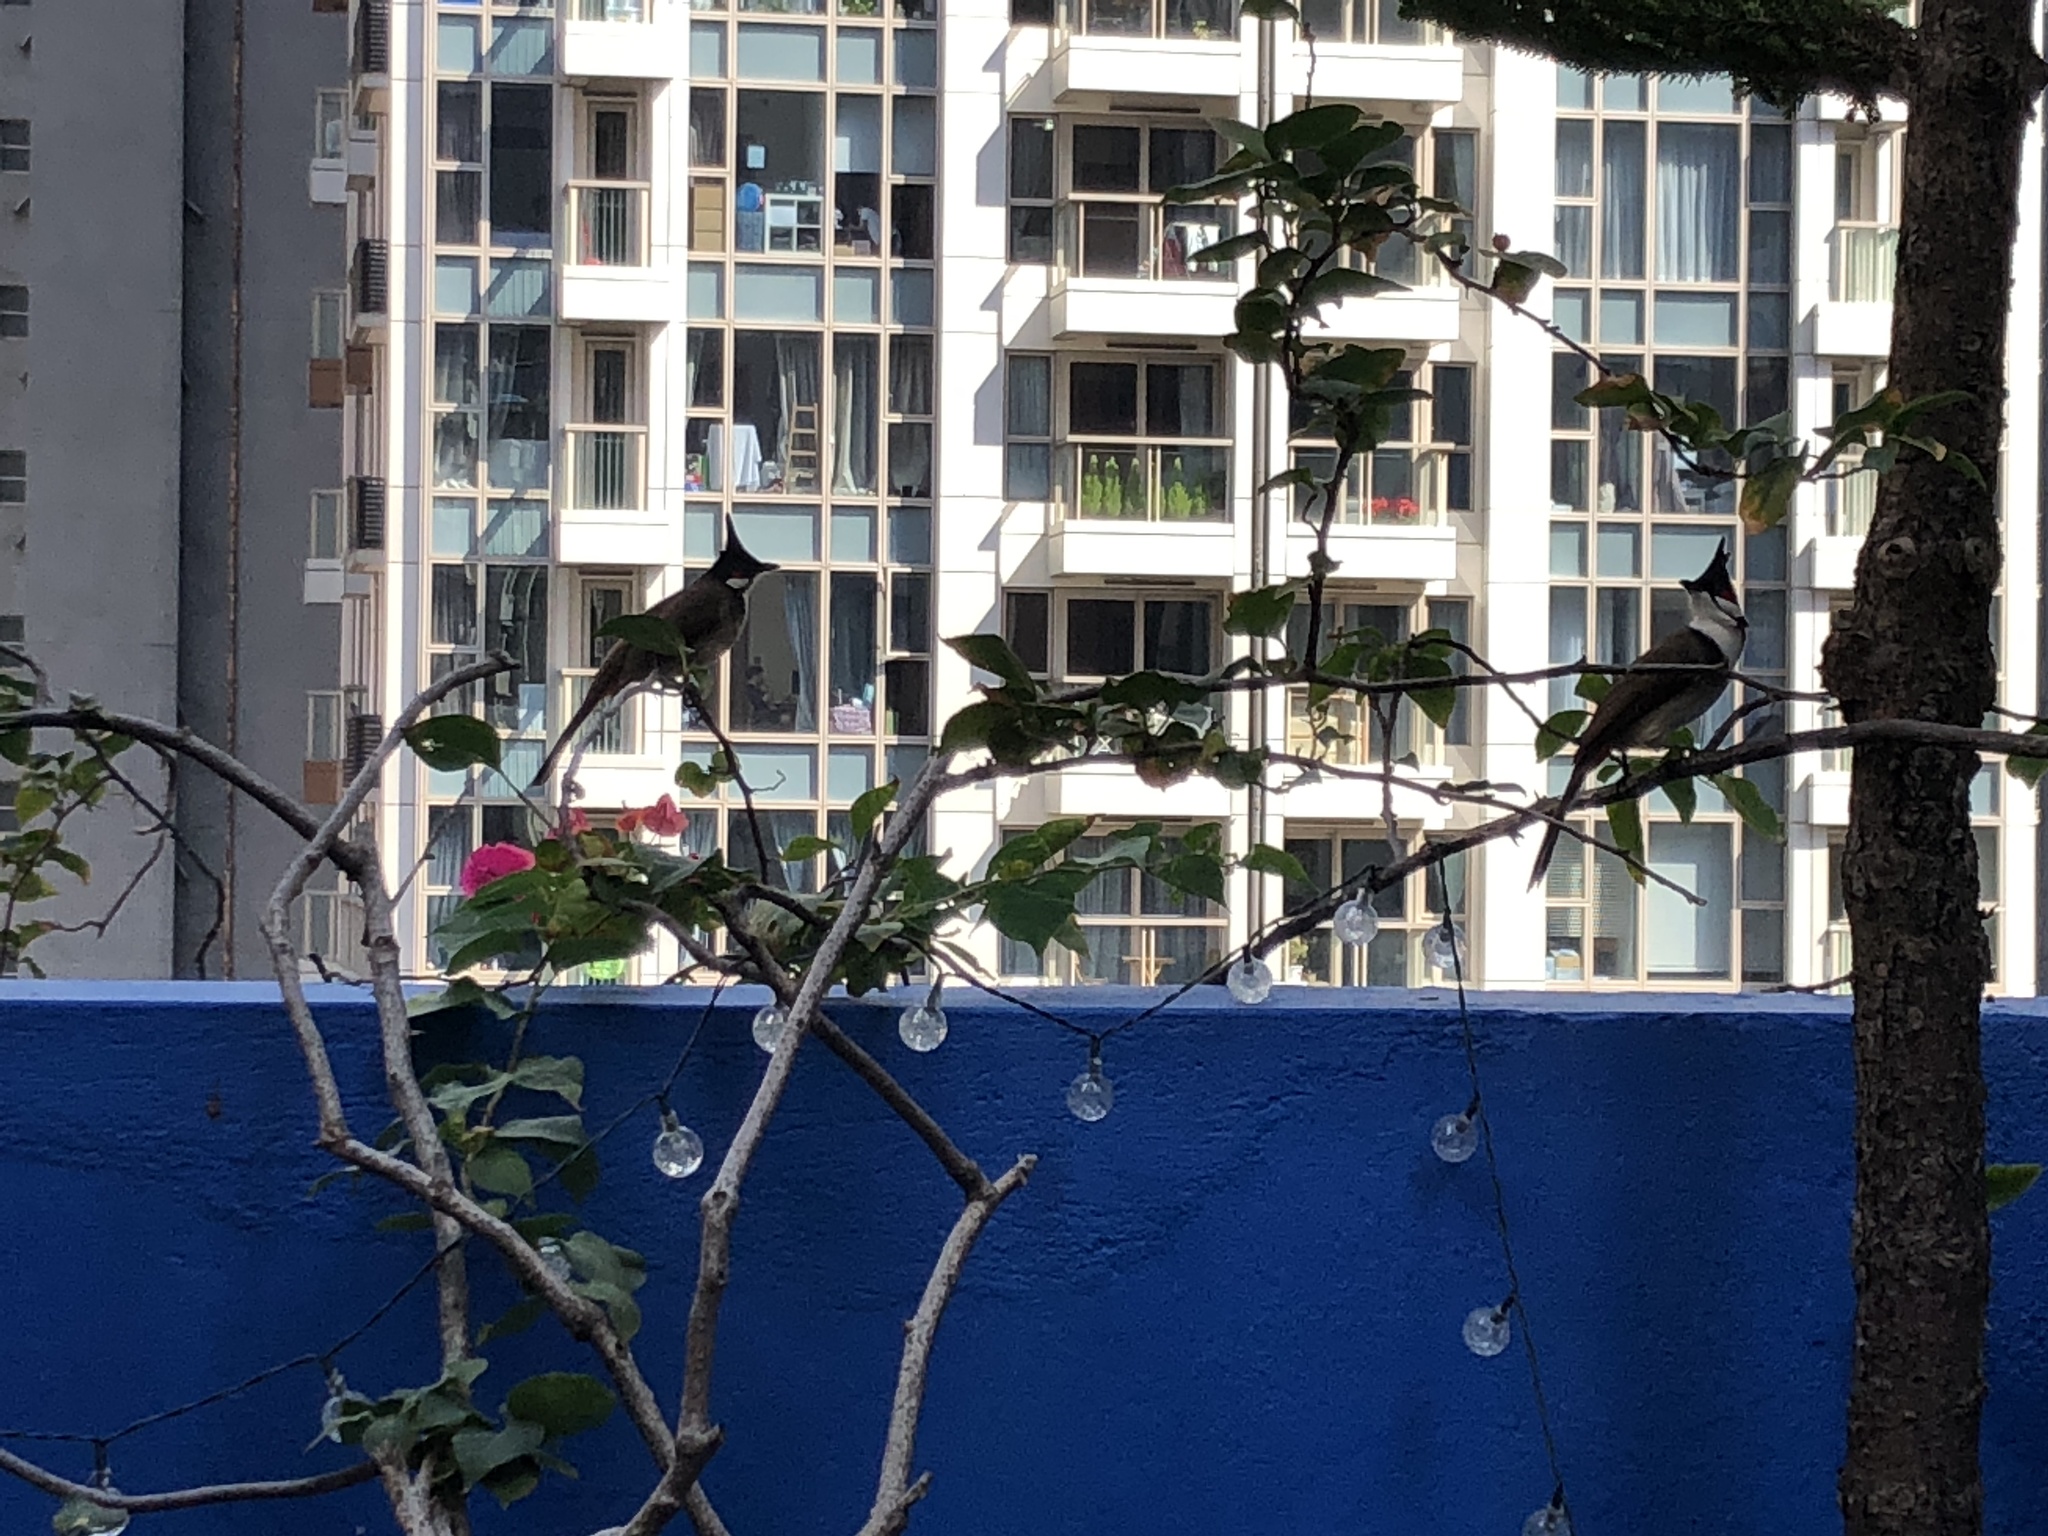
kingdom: Animalia
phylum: Chordata
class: Aves
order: Passeriformes
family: Pycnonotidae
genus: Pycnonotus
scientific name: Pycnonotus jocosus
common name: Red-whiskered bulbul
